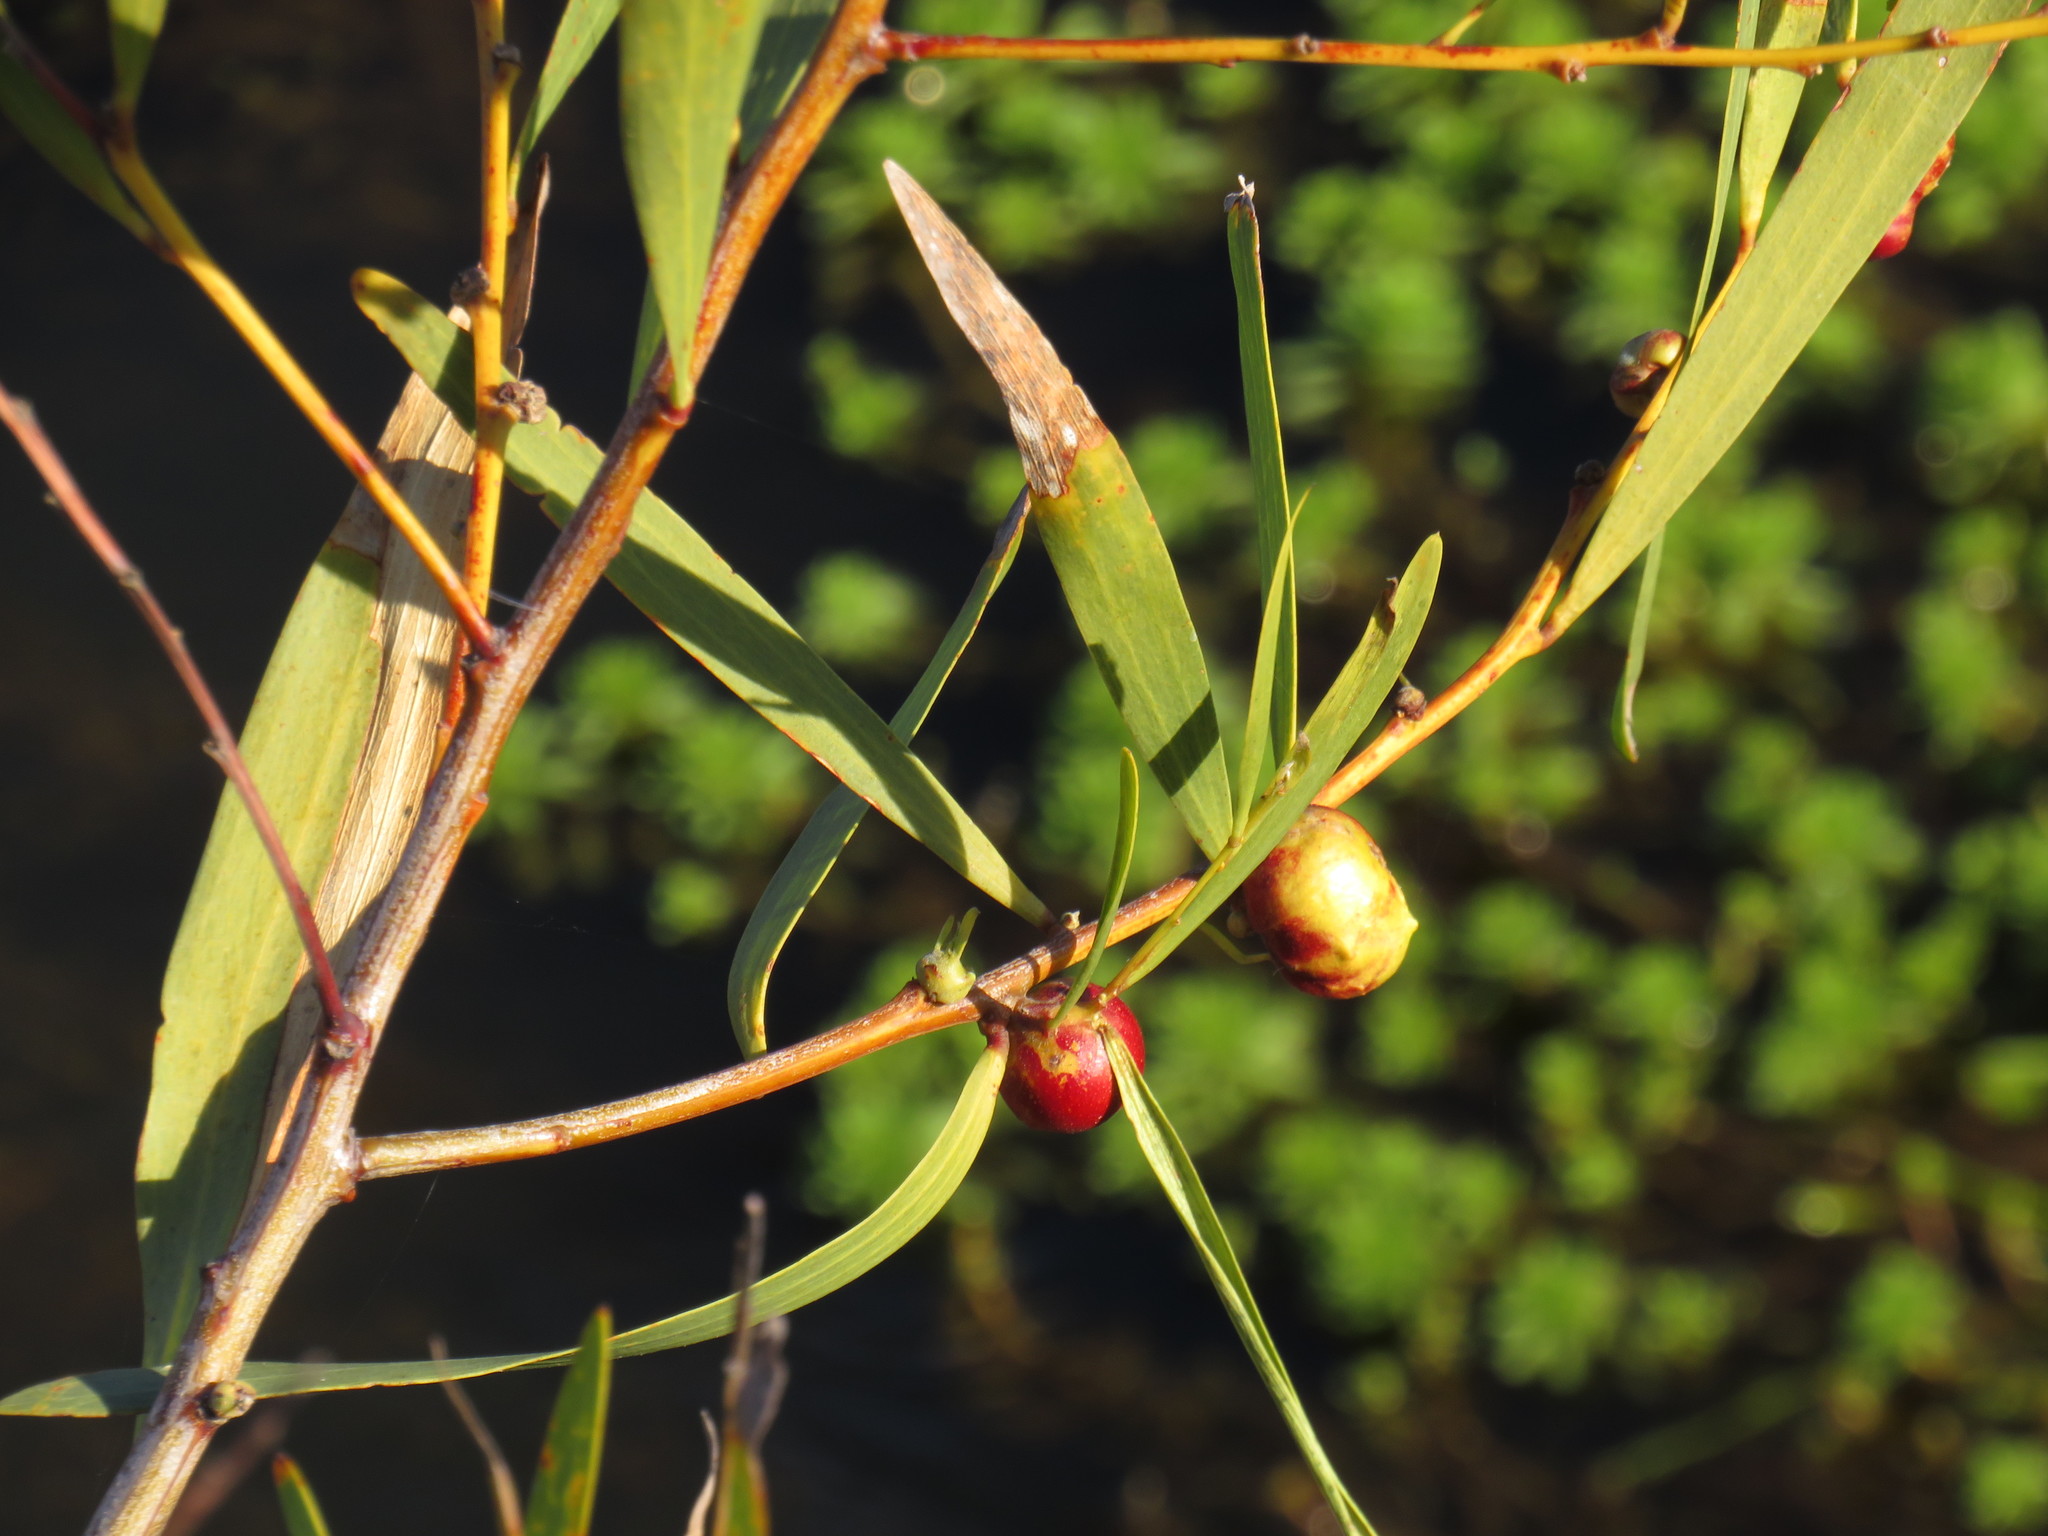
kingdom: Animalia
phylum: Arthropoda
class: Insecta
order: Hymenoptera
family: Pteromalidae
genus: Trichilogaster
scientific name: Trichilogaster acaciaelongifoliae
